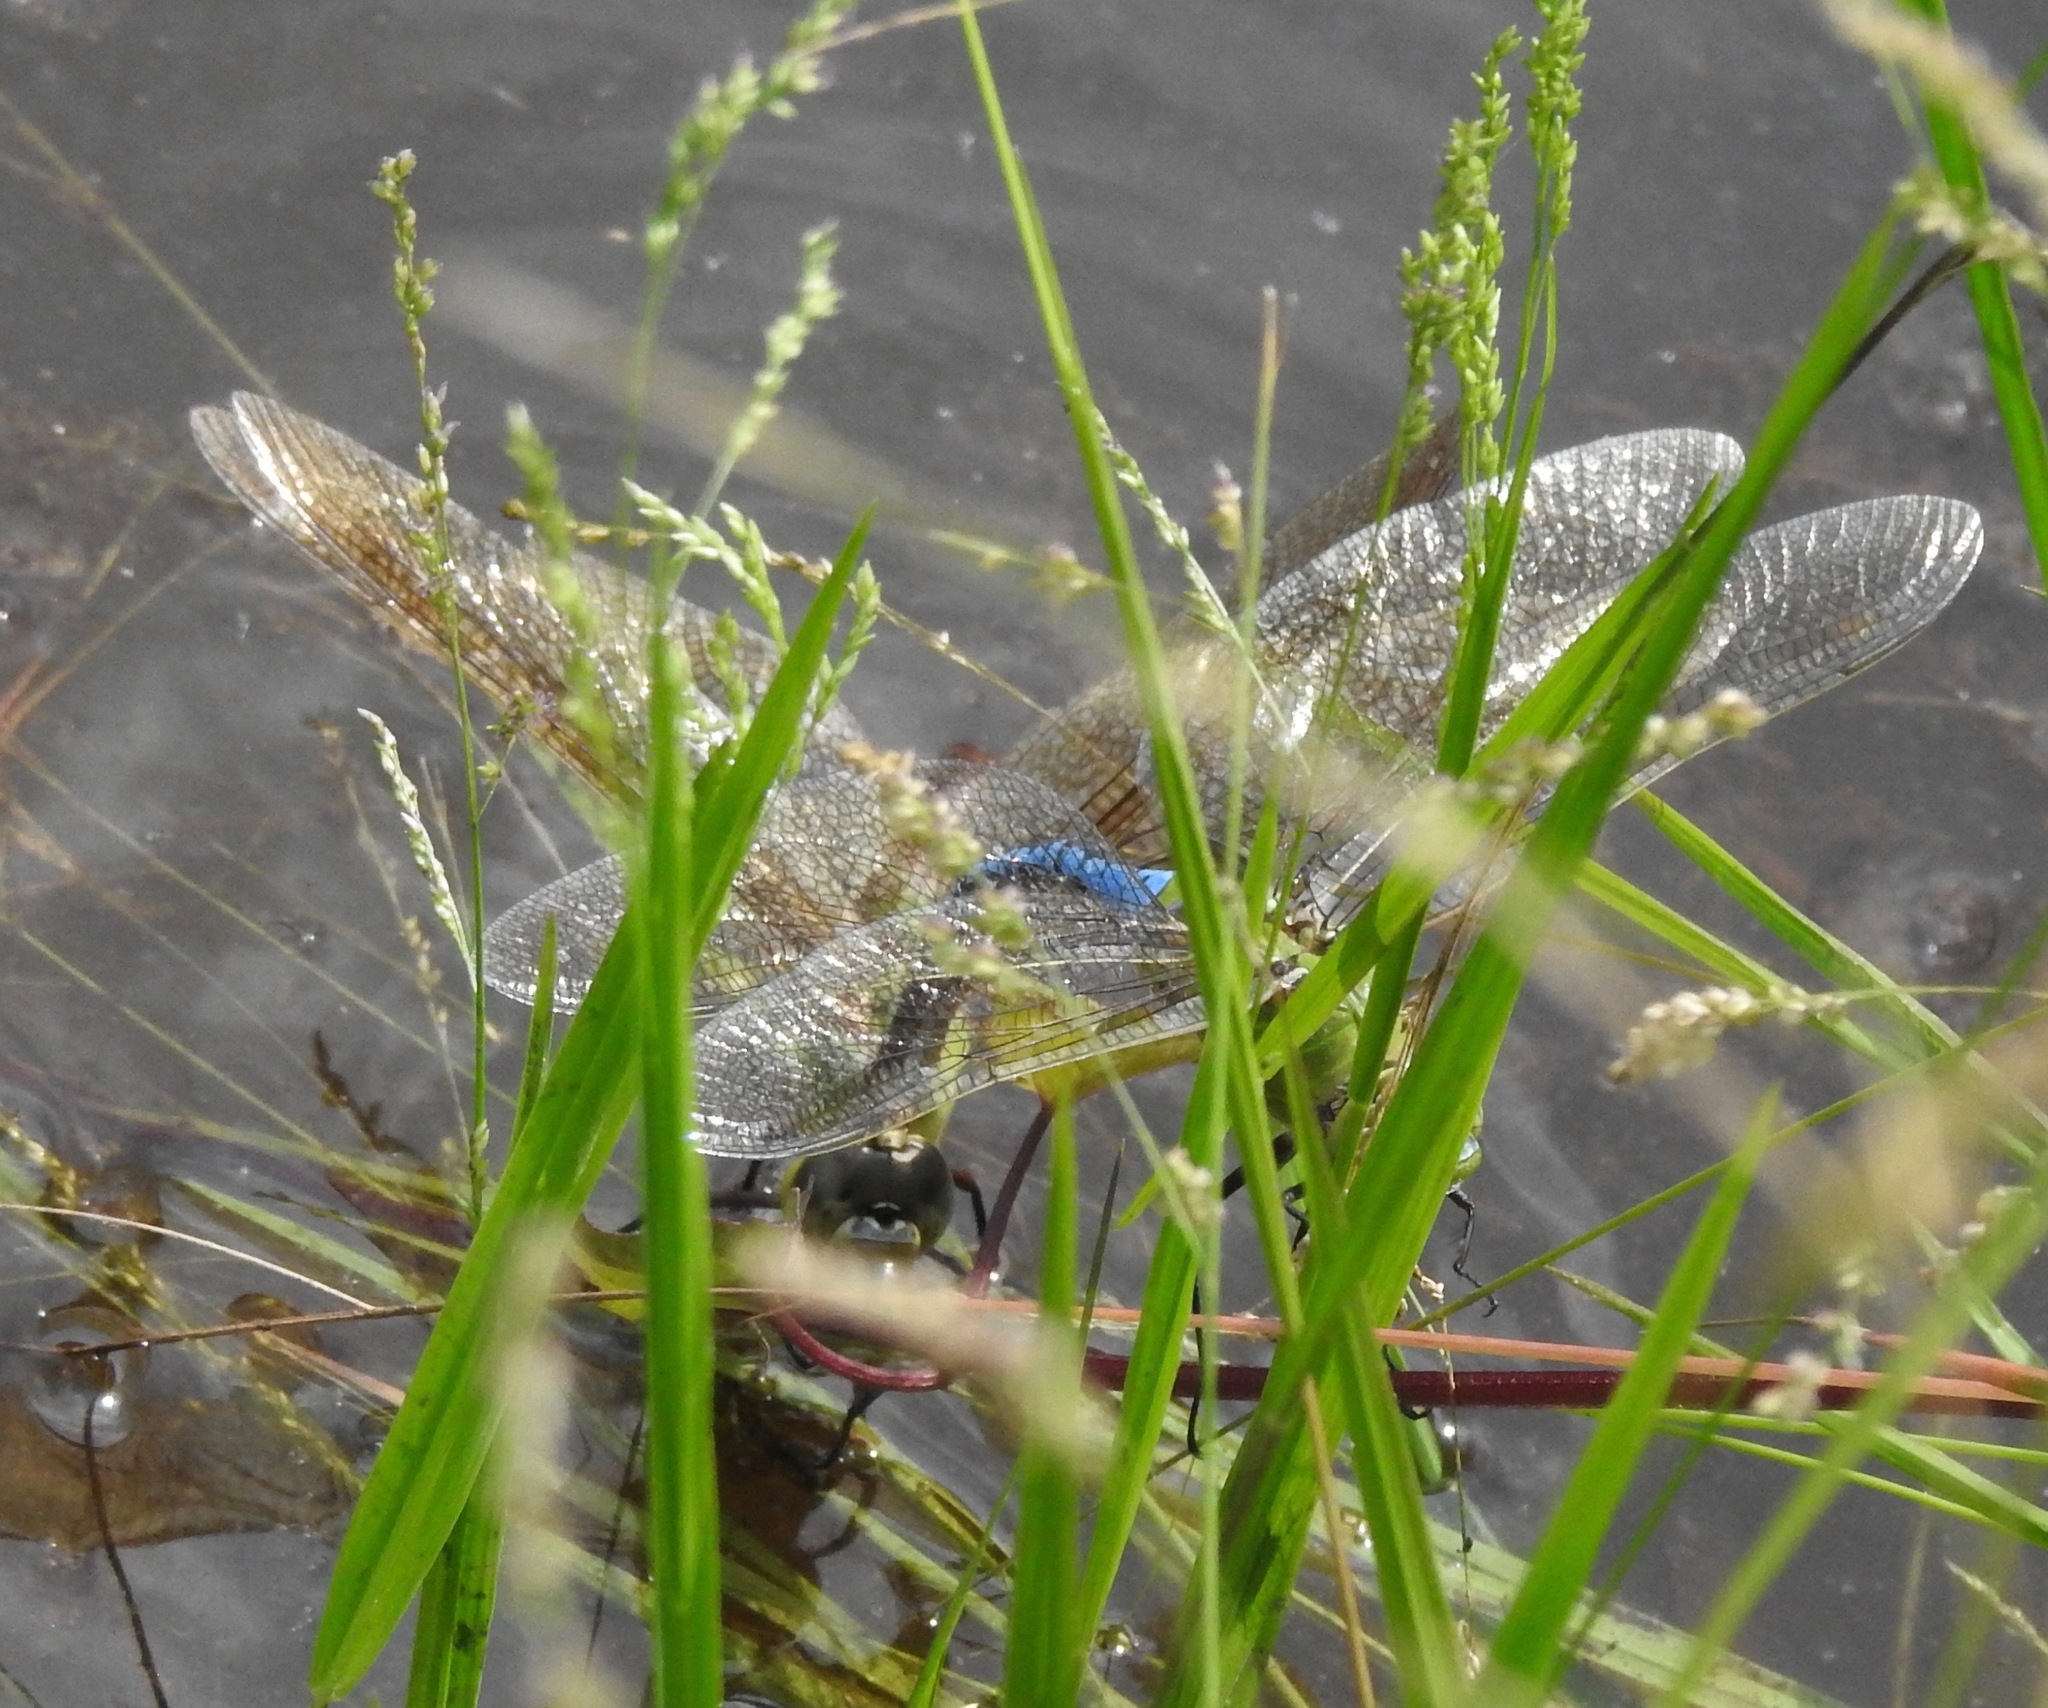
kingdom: Animalia
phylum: Arthropoda
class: Insecta
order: Odonata
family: Aeshnidae
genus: Anax
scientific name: Anax junius
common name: Common green darner
